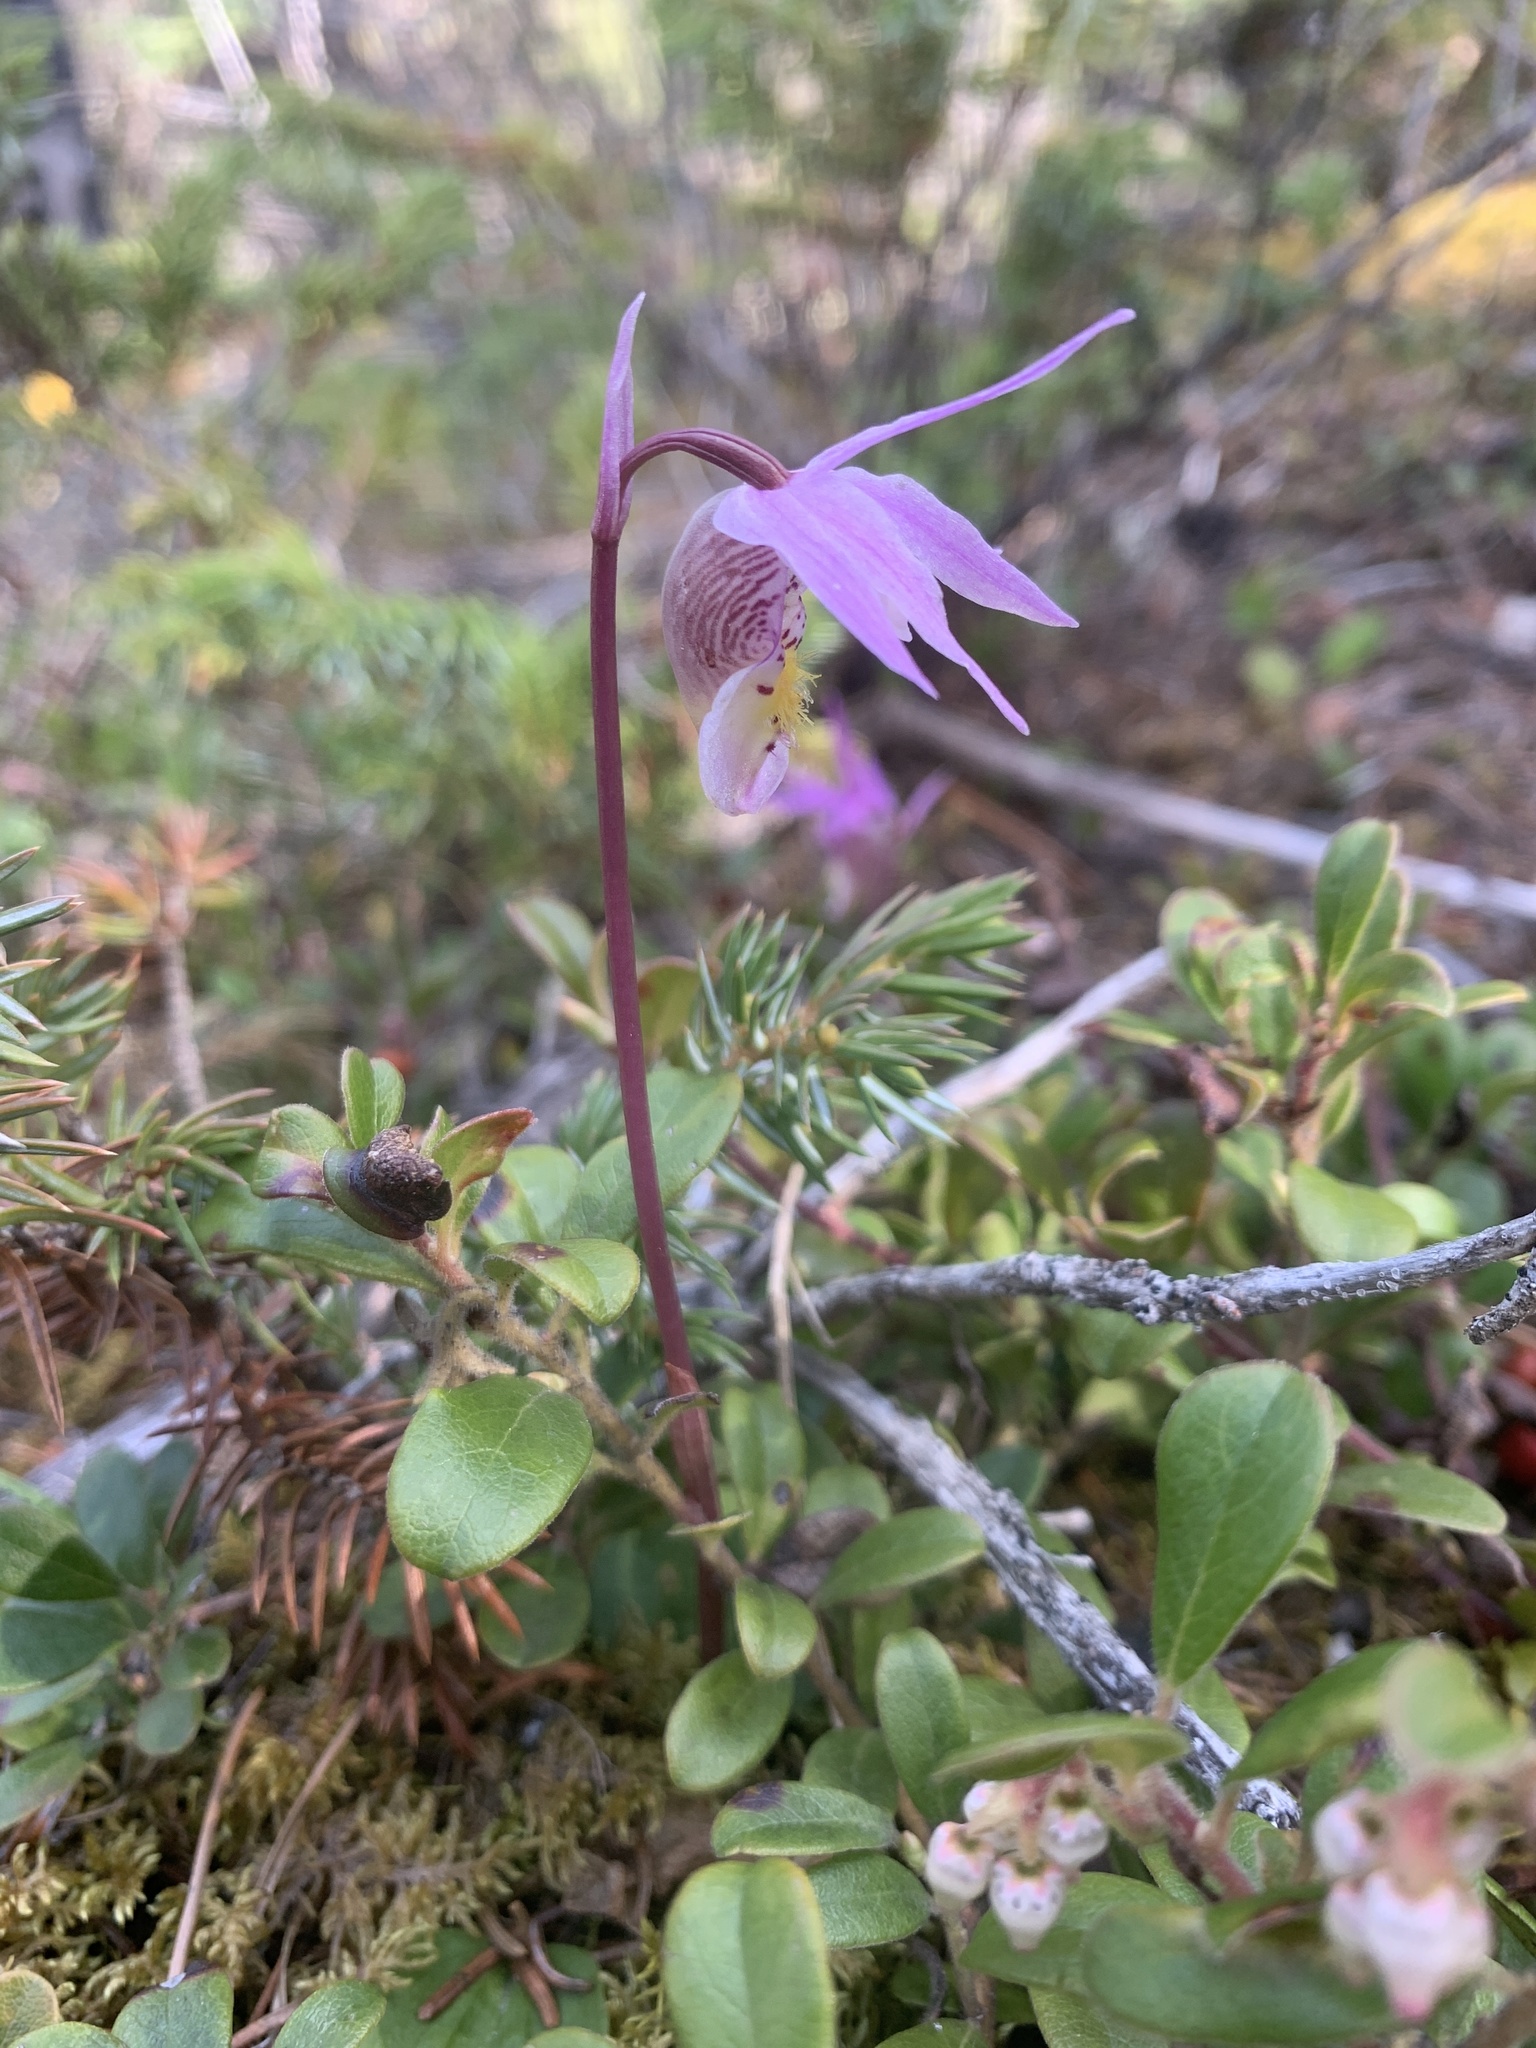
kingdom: Plantae
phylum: Tracheophyta
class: Liliopsida
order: Asparagales
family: Orchidaceae
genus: Calypso
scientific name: Calypso bulbosa
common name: Calypso
